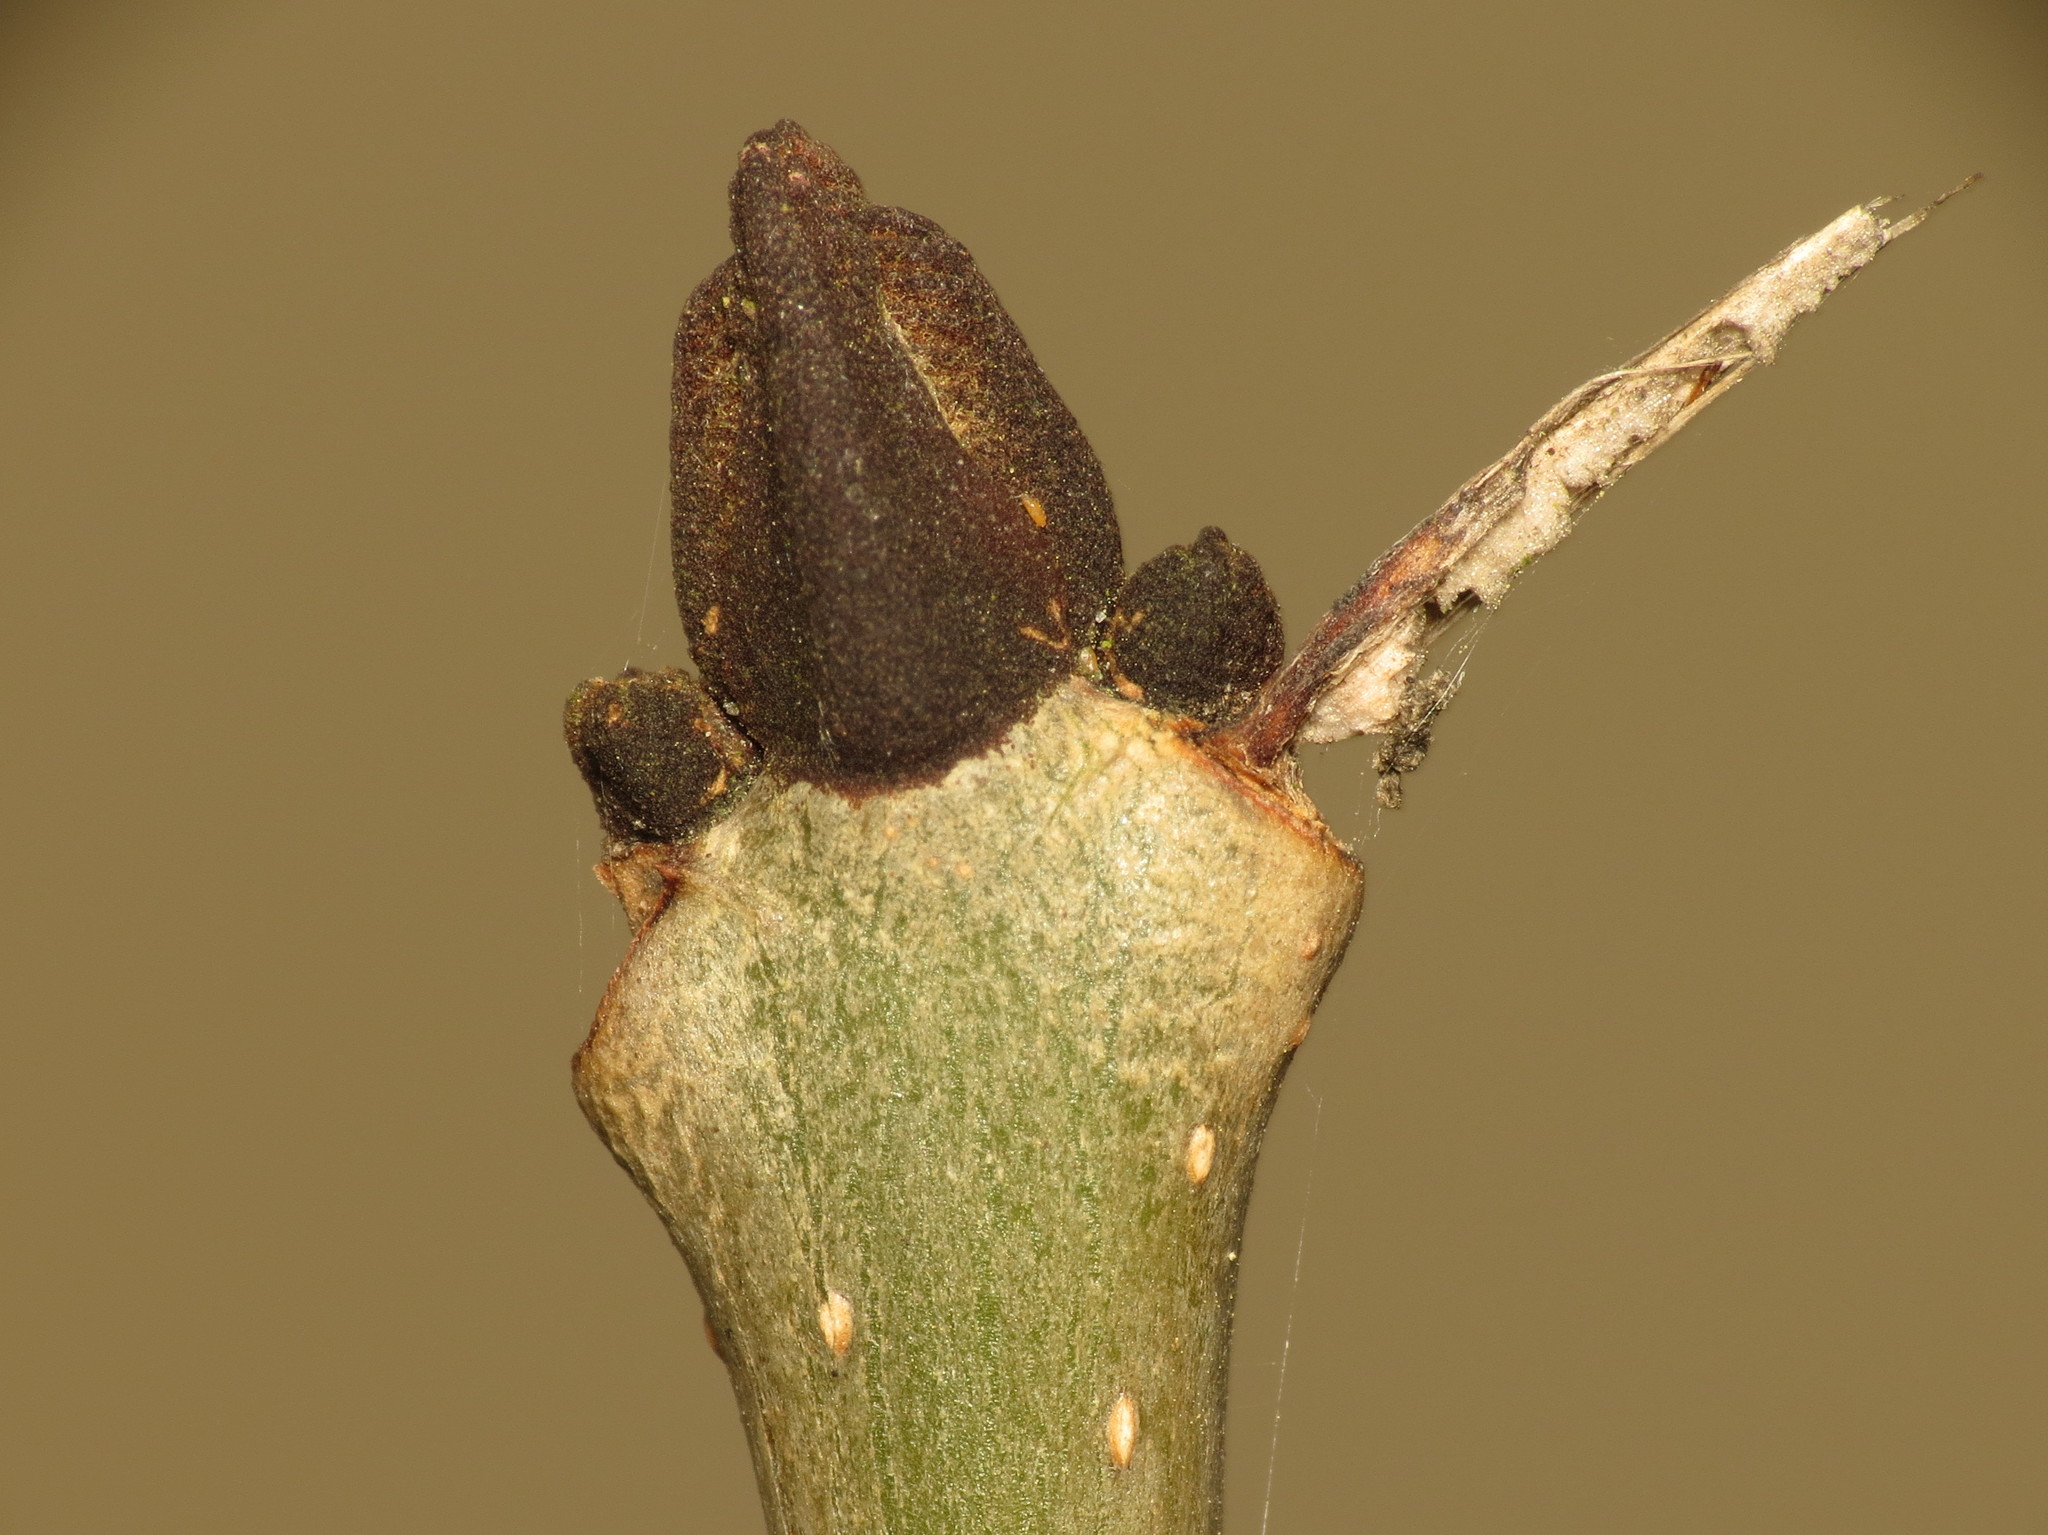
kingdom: Plantae
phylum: Tracheophyta
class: Magnoliopsida
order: Lamiales
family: Oleaceae
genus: Fraxinus
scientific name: Fraxinus excelsior
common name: European ash
